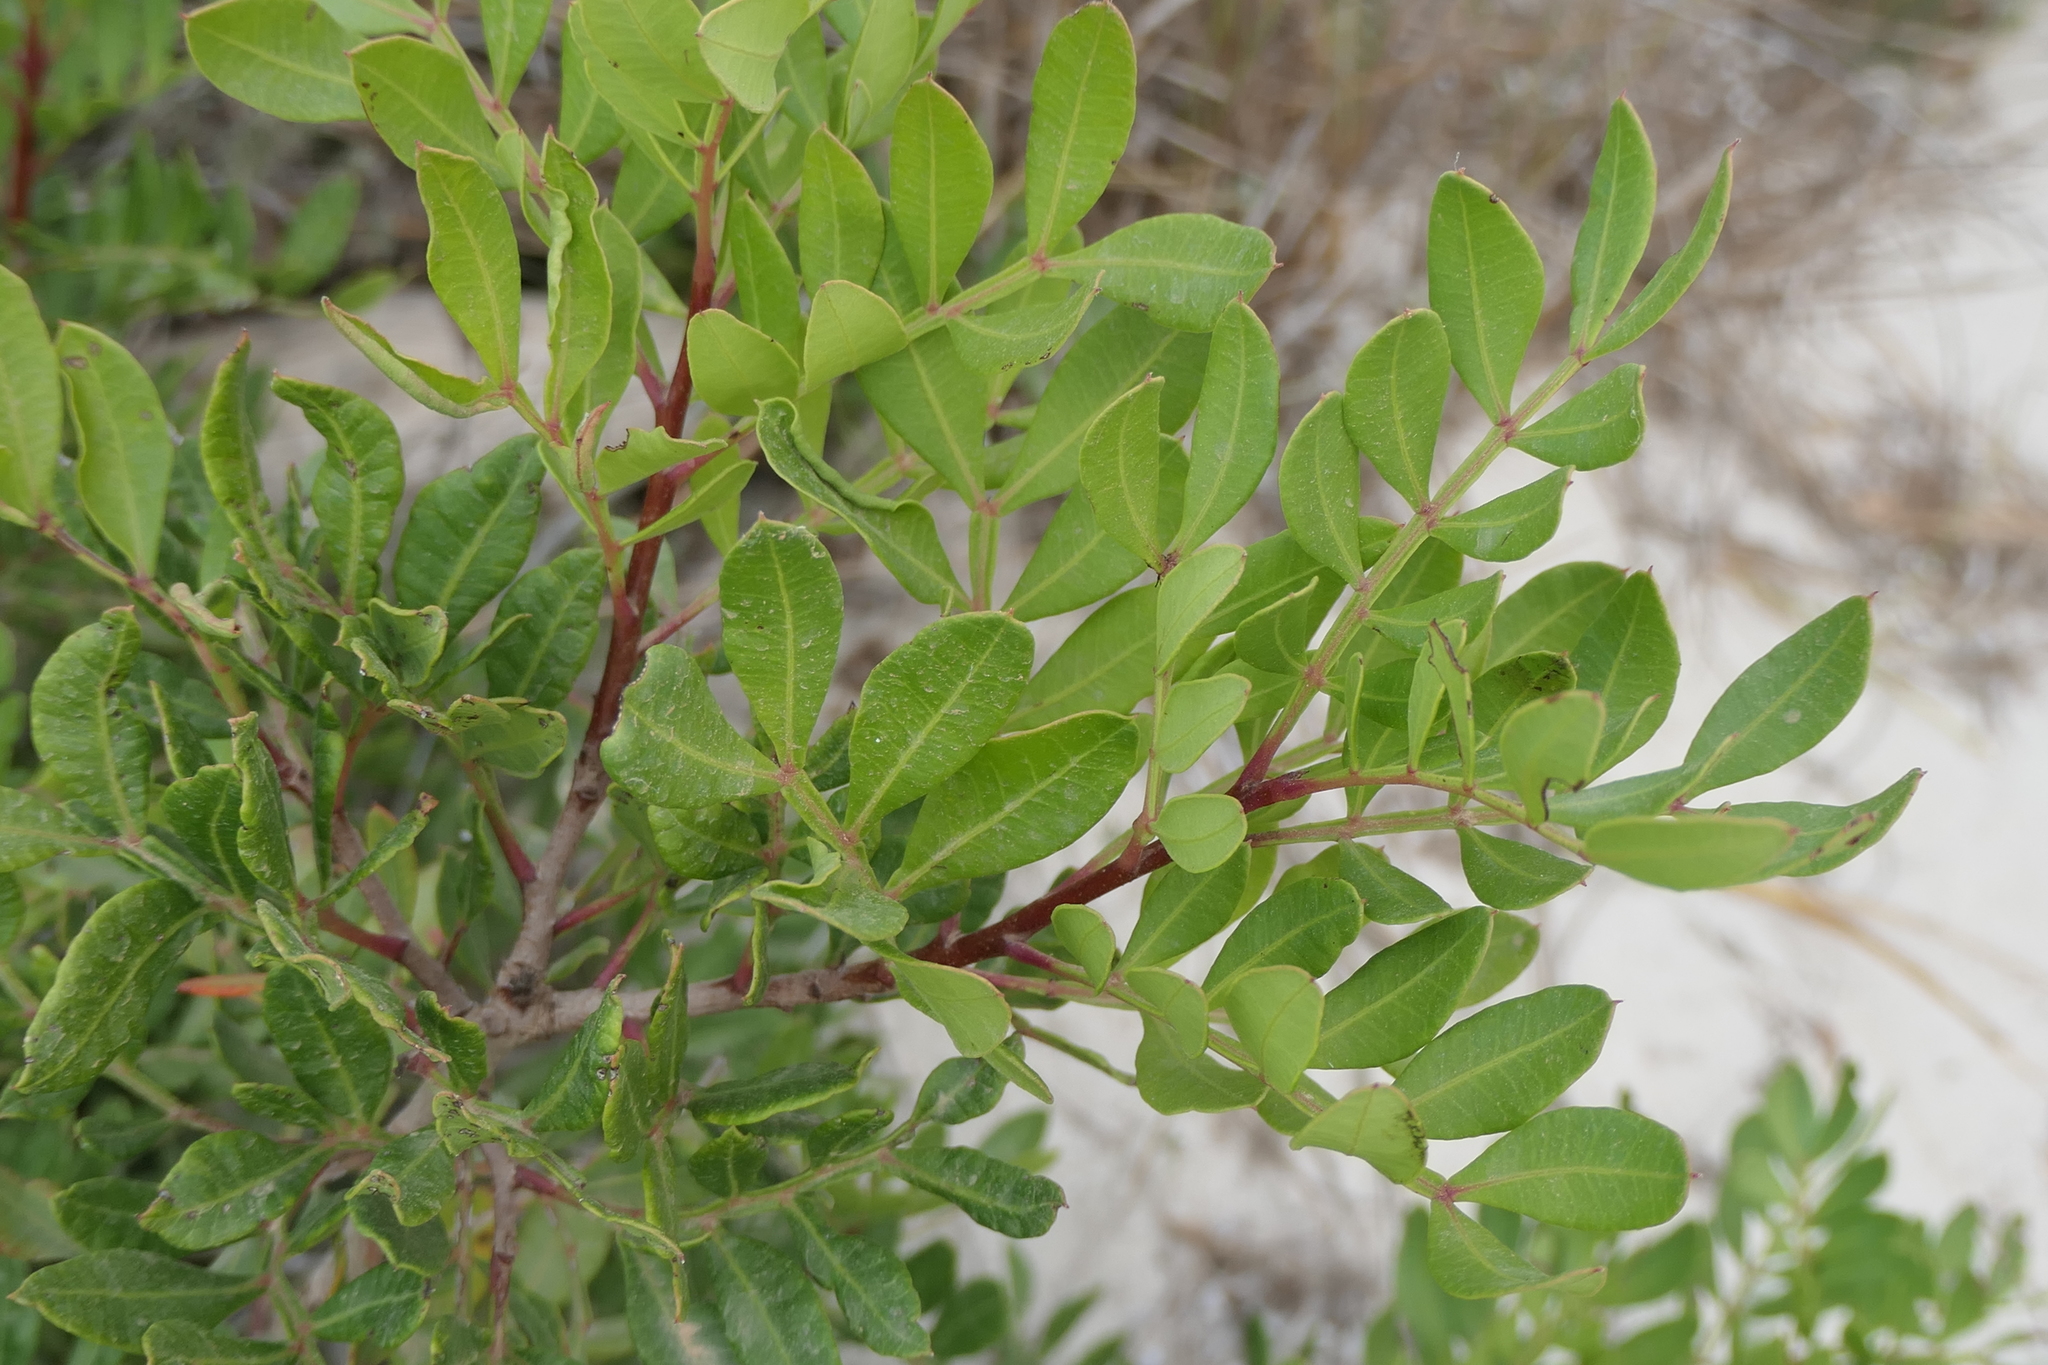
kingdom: Plantae
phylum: Tracheophyta
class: Magnoliopsida
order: Sapindales
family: Anacardiaceae
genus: Pistacia
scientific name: Pistacia lentiscus
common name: Lentisk
